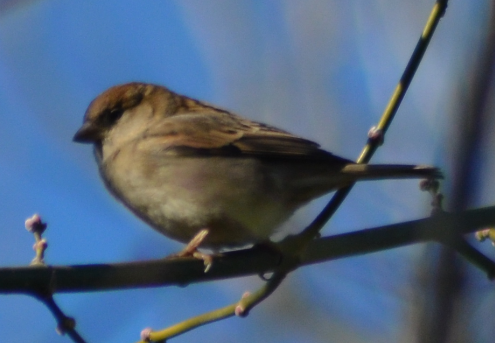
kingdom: Animalia
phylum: Chordata
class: Aves
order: Passeriformes
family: Passeridae
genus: Passer
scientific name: Passer domesticus
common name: House sparrow
